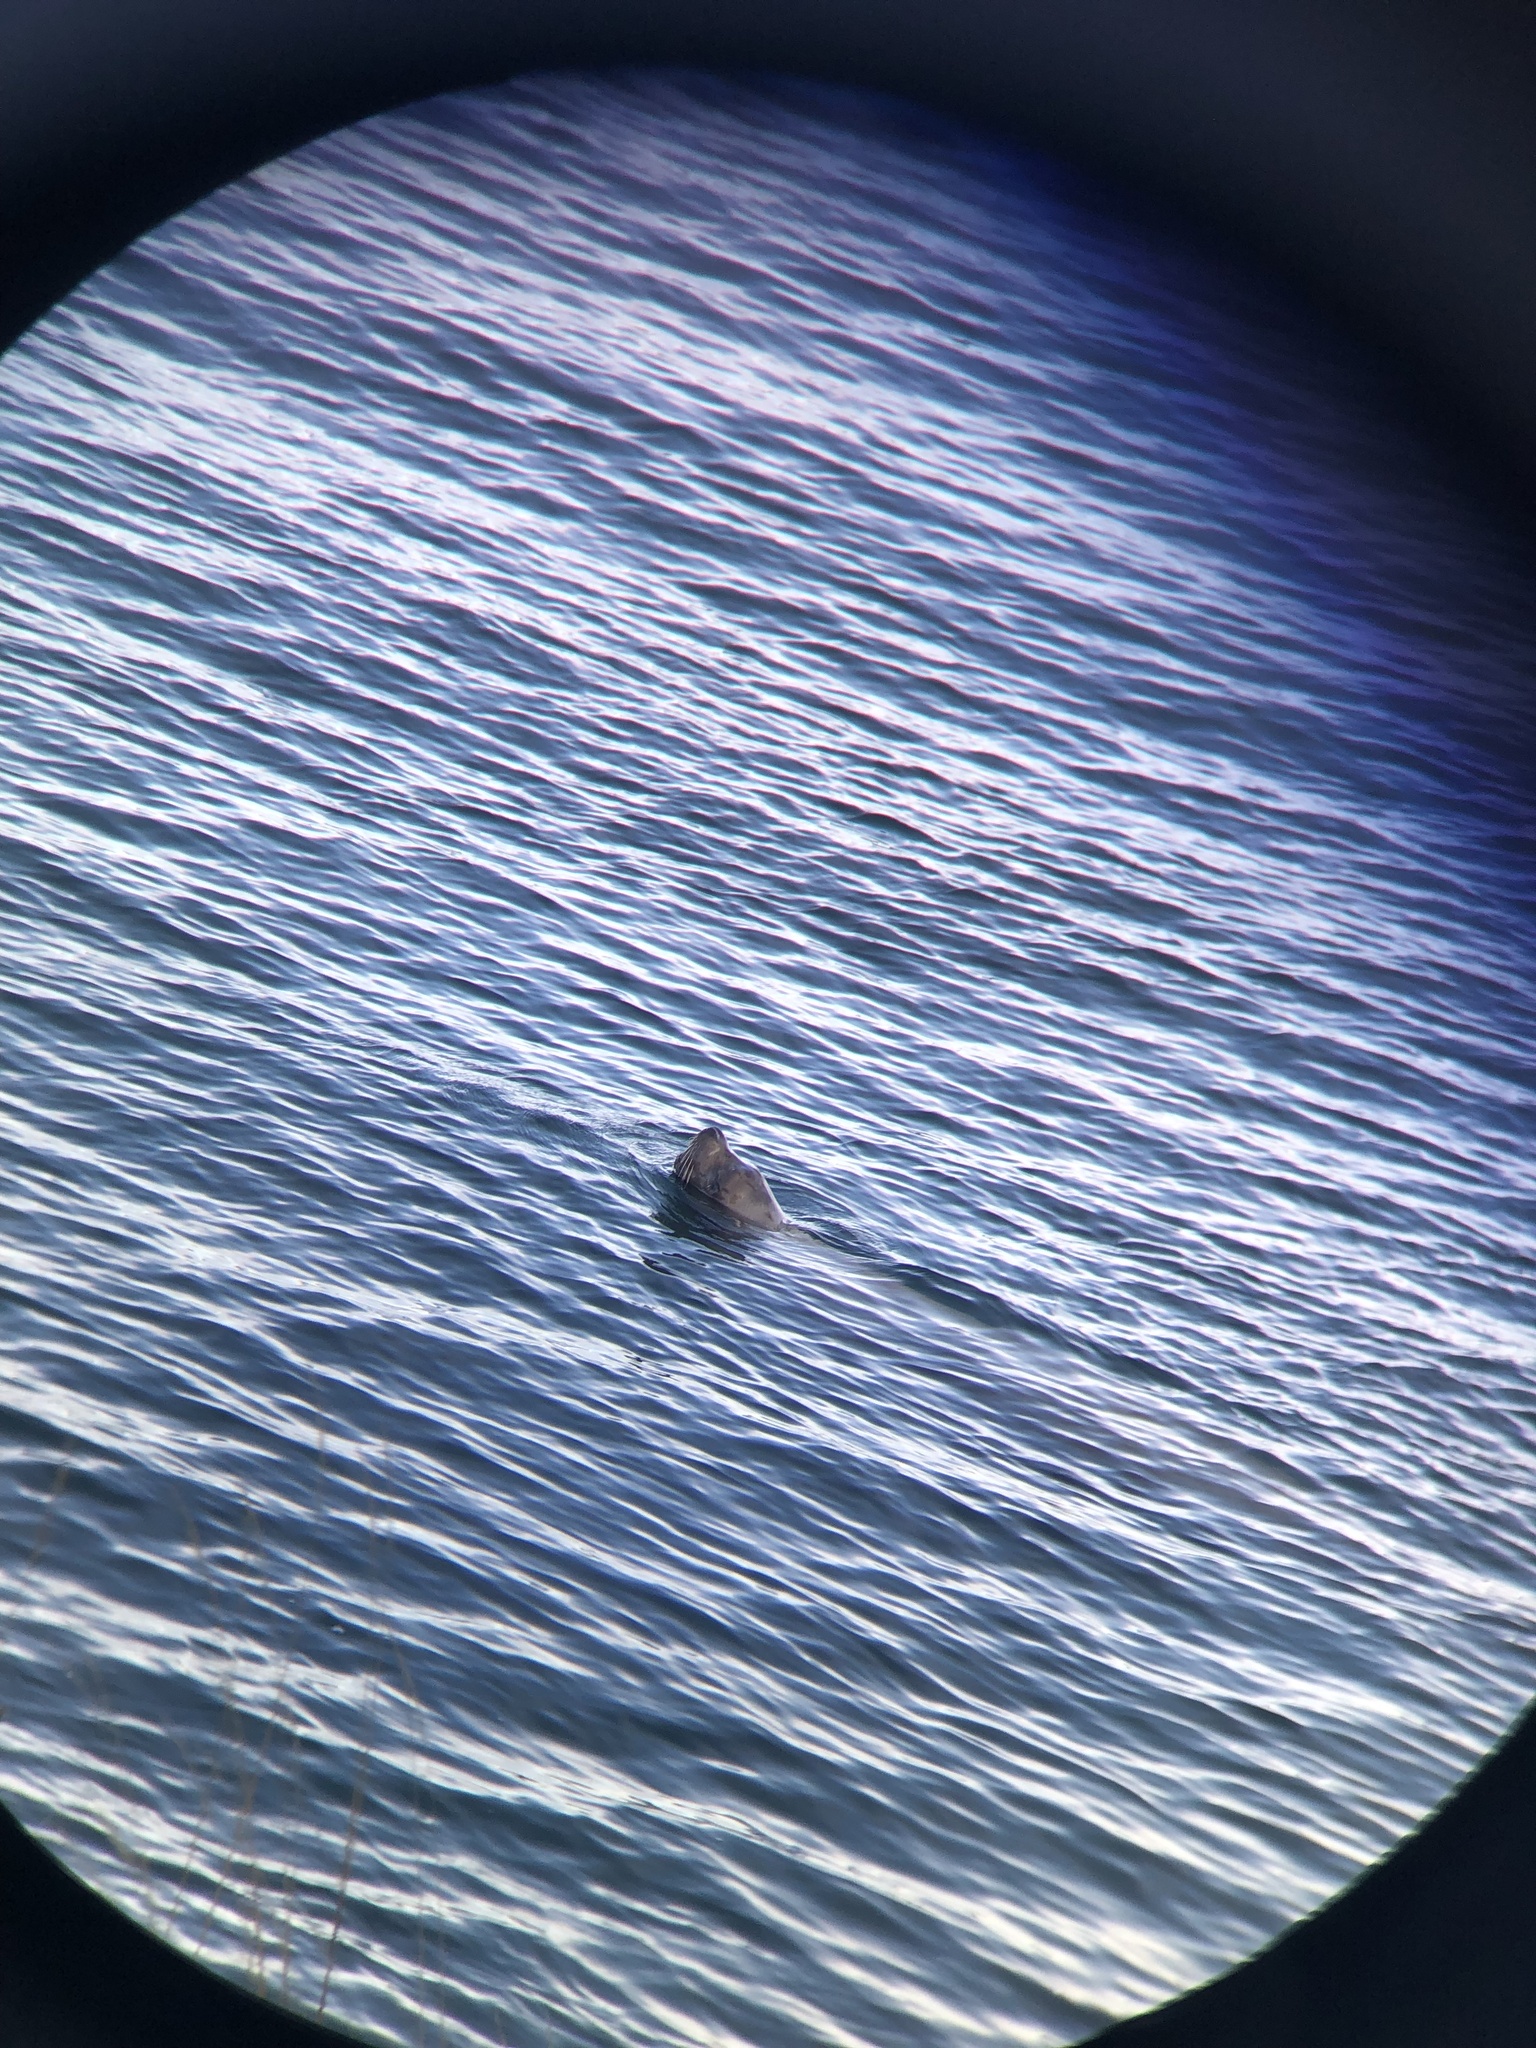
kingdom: Animalia
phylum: Chordata
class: Mammalia
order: Carnivora
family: Otariidae
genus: Eumetopias
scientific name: Eumetopias jubatus
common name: Steller sea lion
